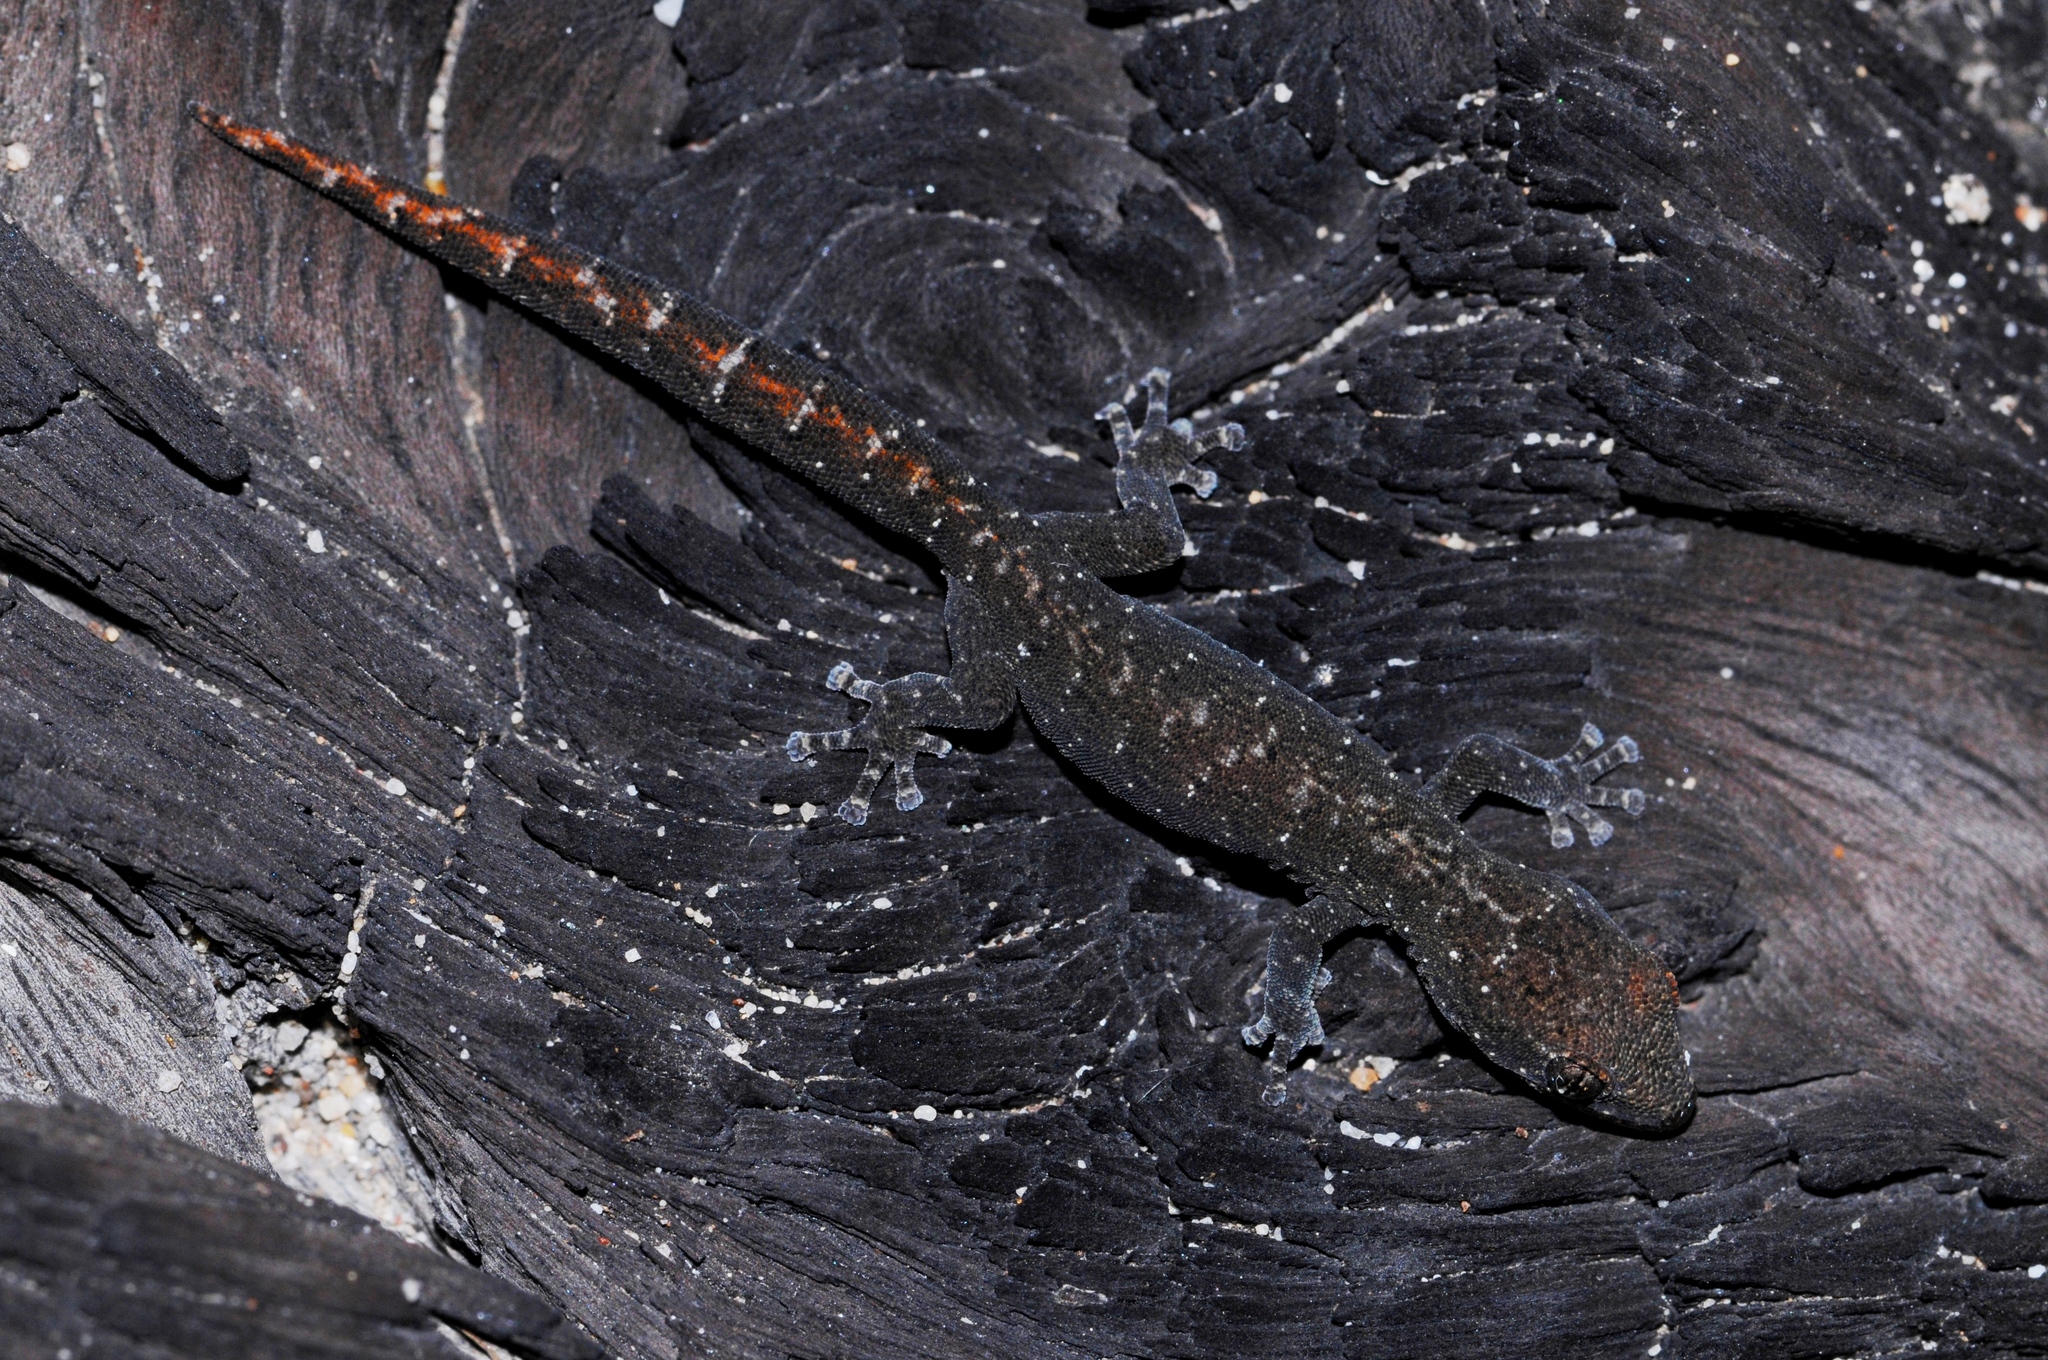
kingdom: Animalia
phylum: Chordata
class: Squamata
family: Gekkonidae
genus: Afrogecko
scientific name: Afrogecko porphyreus
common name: Marbled leaf-toed gecko
